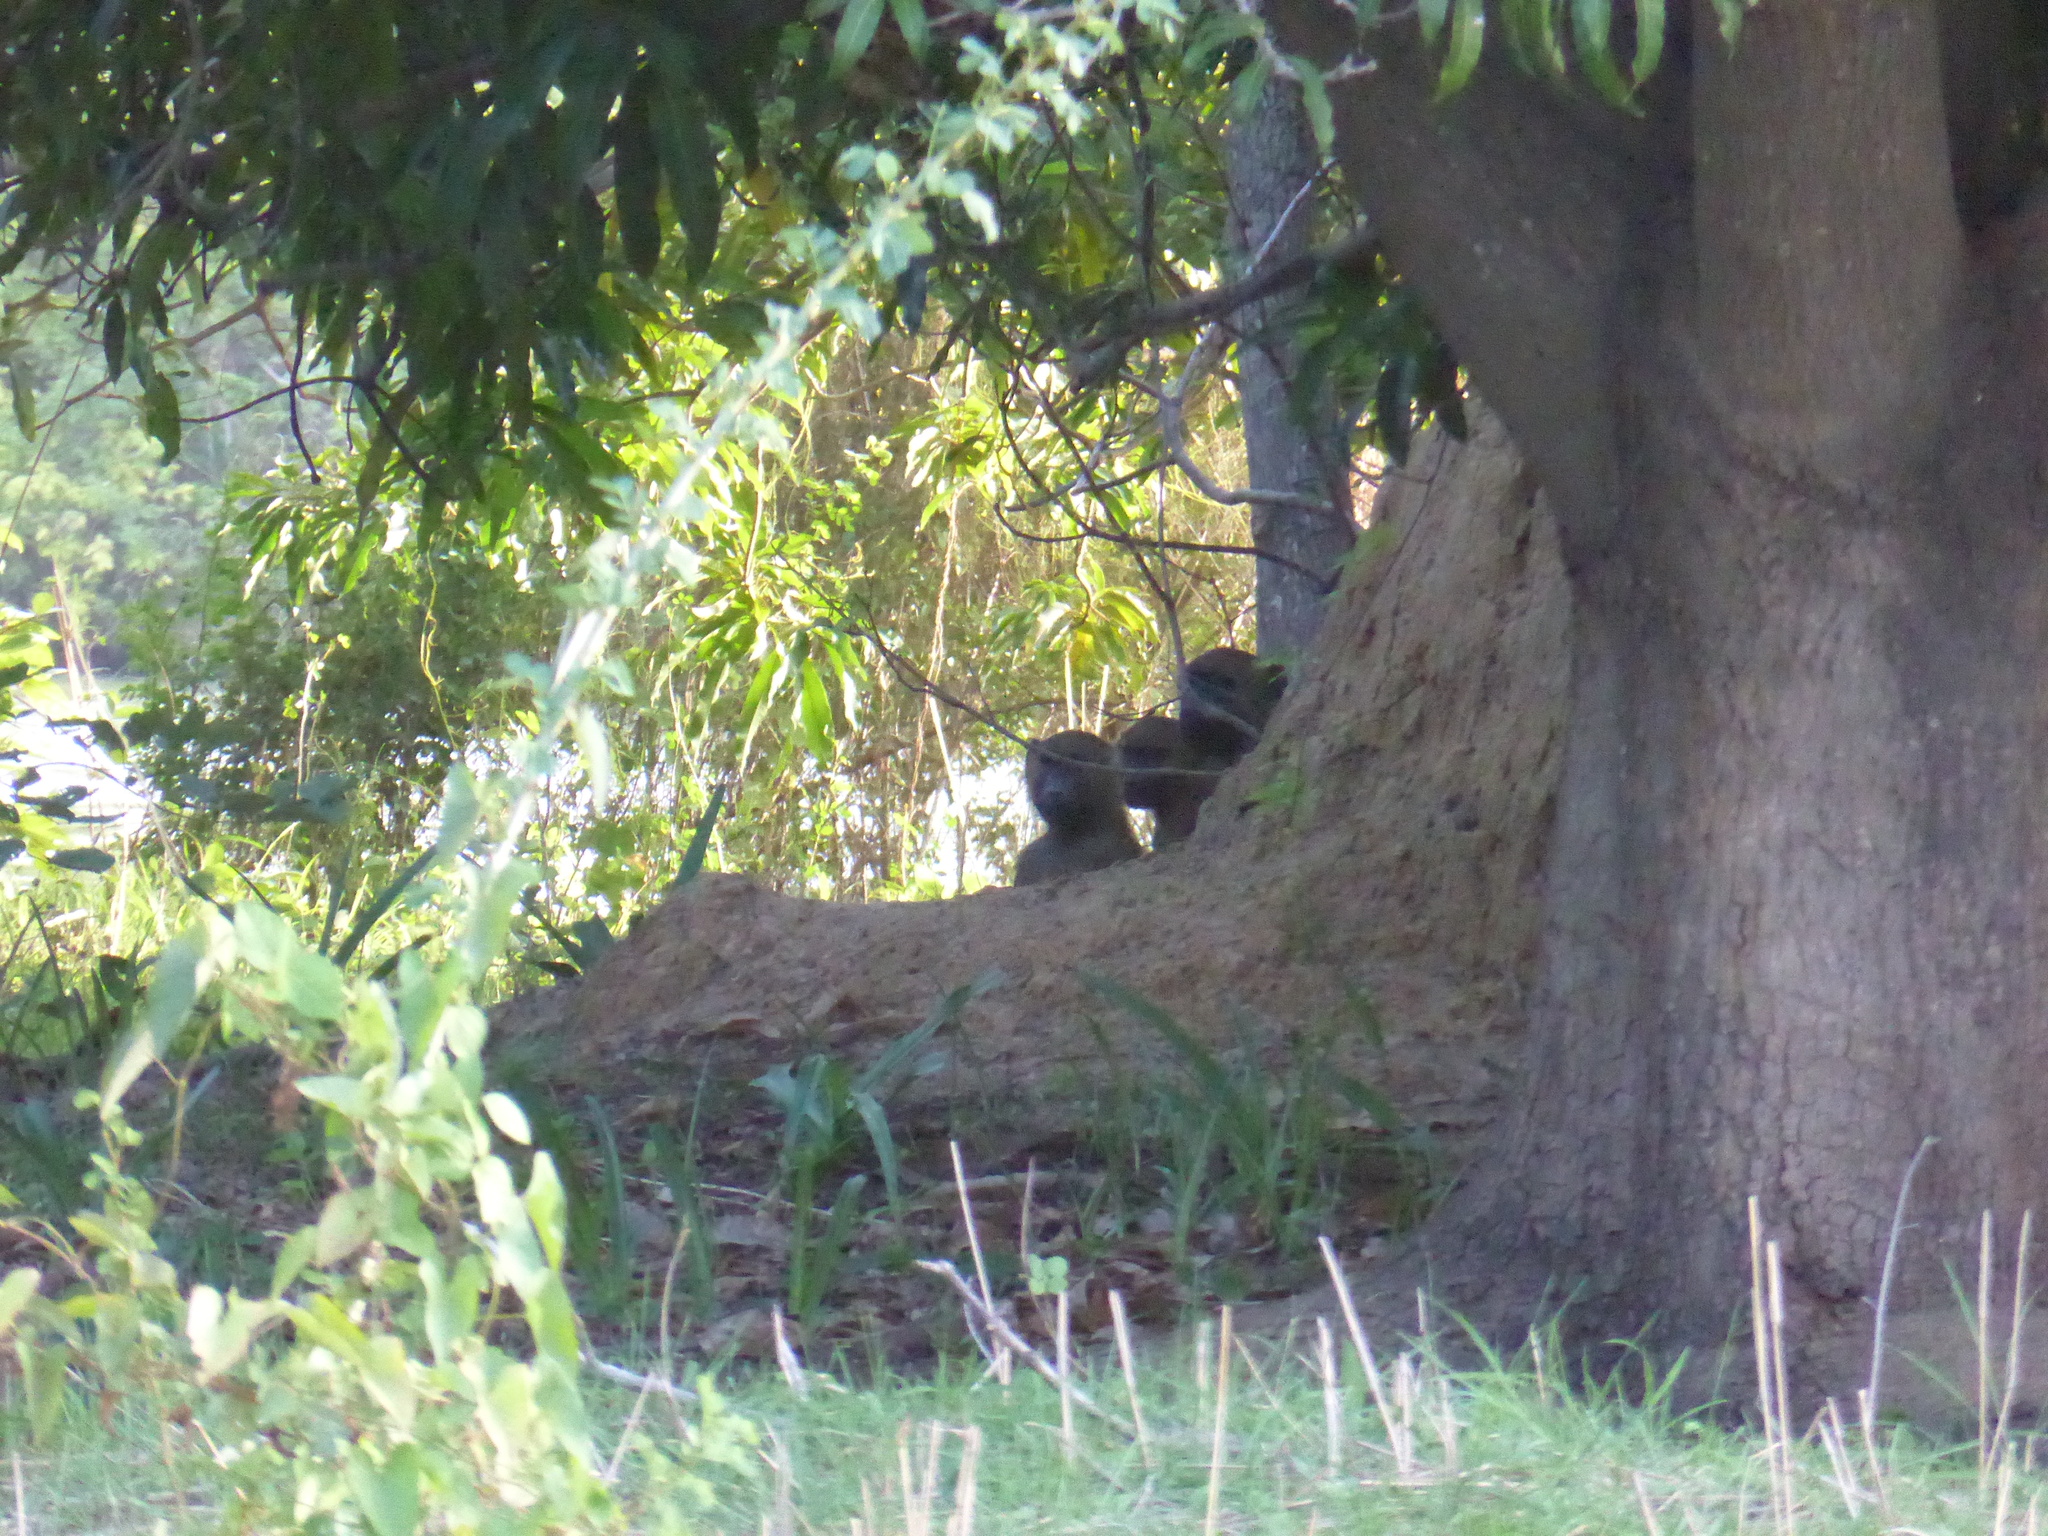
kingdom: Animalia
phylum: Chordata
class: Mammalia
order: Primates
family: Cercopithecidae
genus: Papio
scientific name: Papio papio
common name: Guinea baboon
